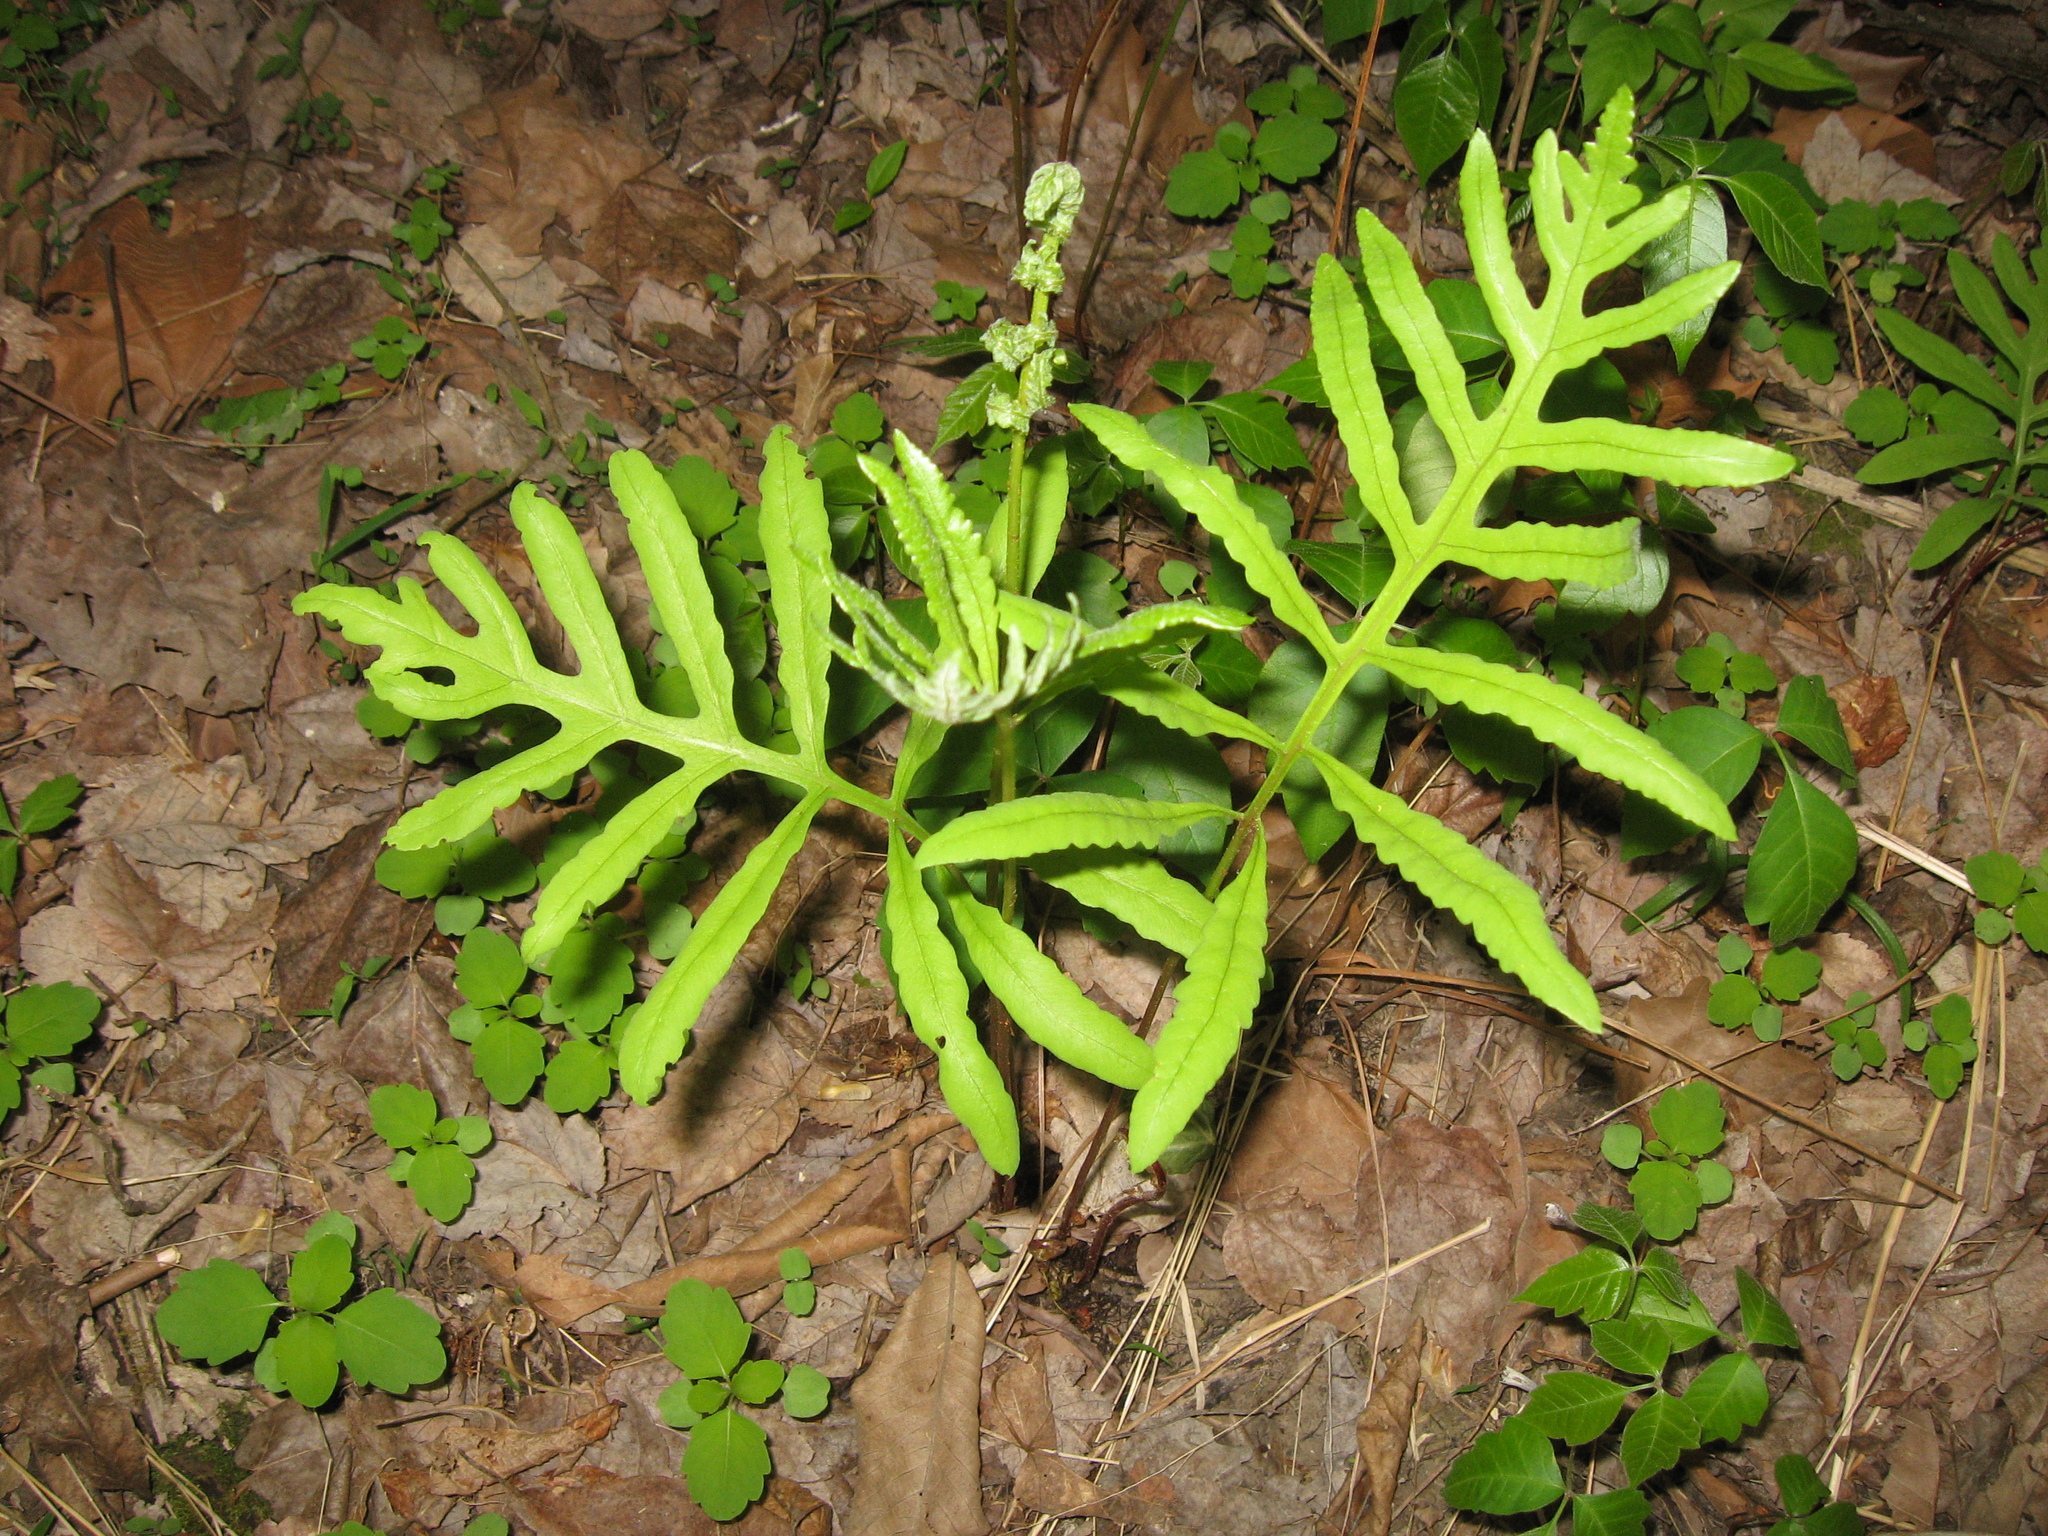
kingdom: Plantae
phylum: Tracheophyta
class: Polypodiopsida
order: Polypodiales
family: Onocleaceae
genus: Onoclea
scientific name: Onoclea sensibilis
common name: Sensitive fern
